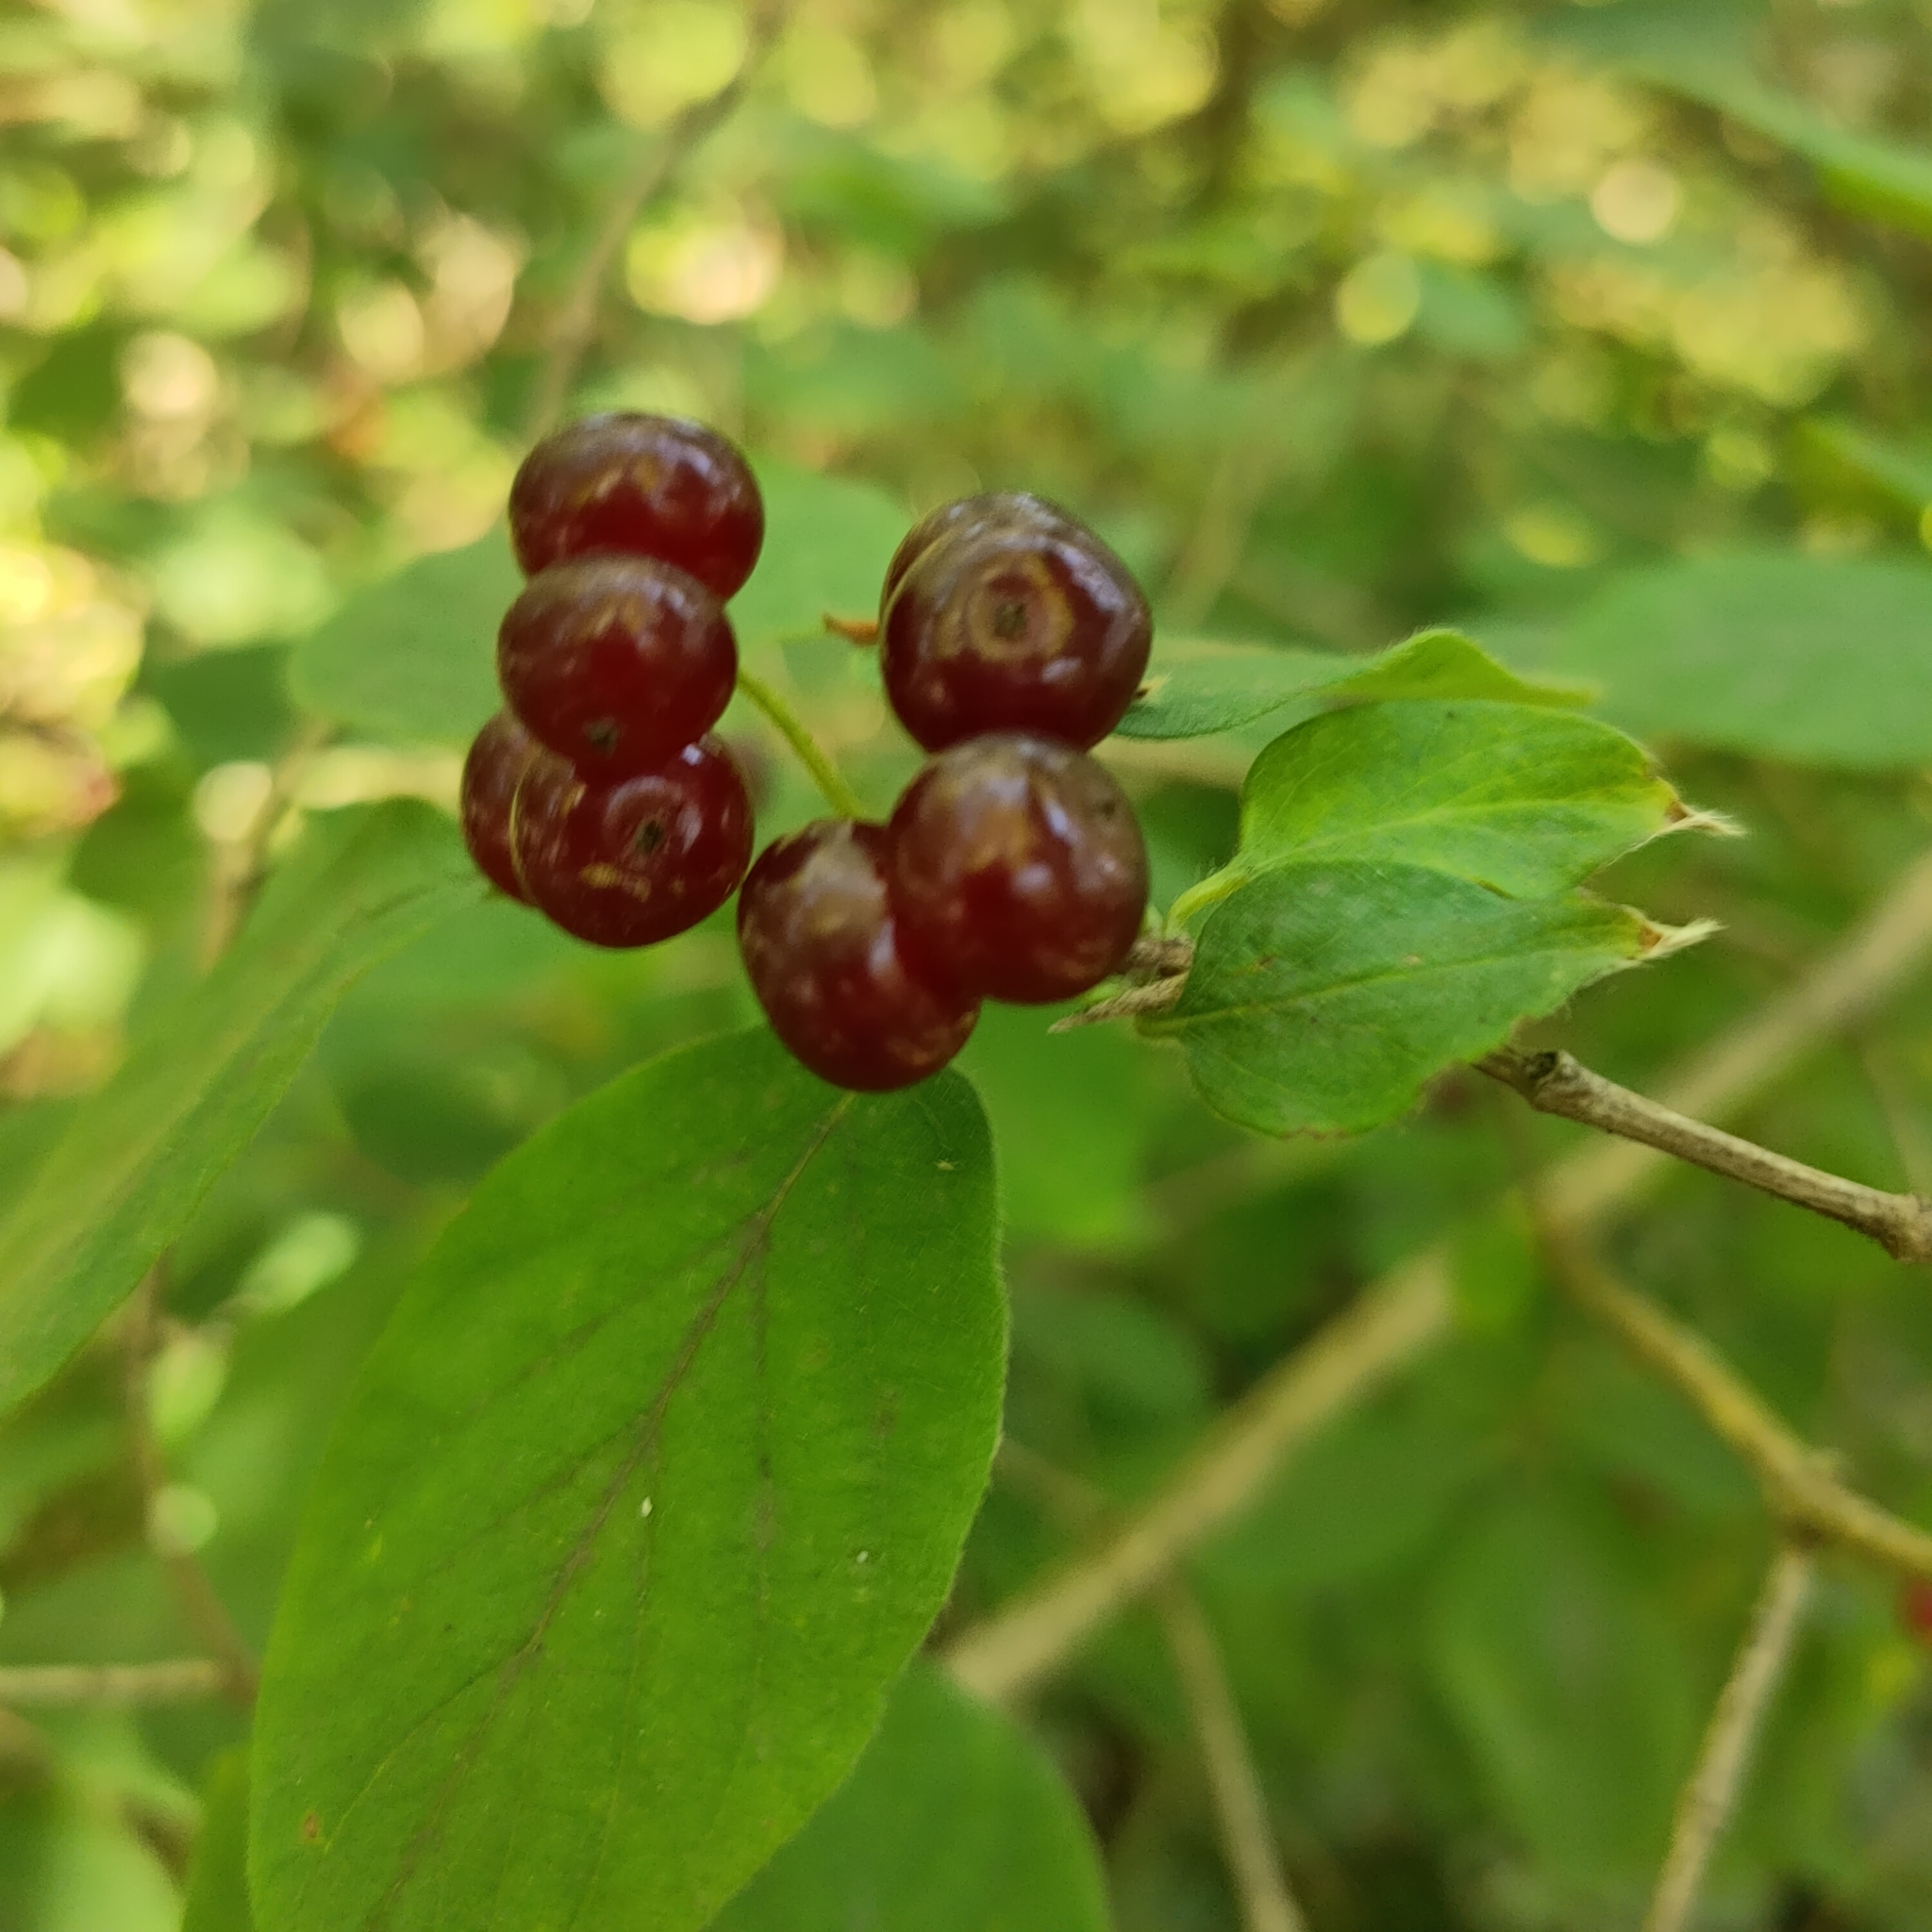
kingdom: Plantae
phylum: Tracheophyta
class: Magnoliopsida
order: Dipsacales
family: Caprifoliaceae
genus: Lonicera
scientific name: Lonicera xylosteum
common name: Fly honeysuckle
